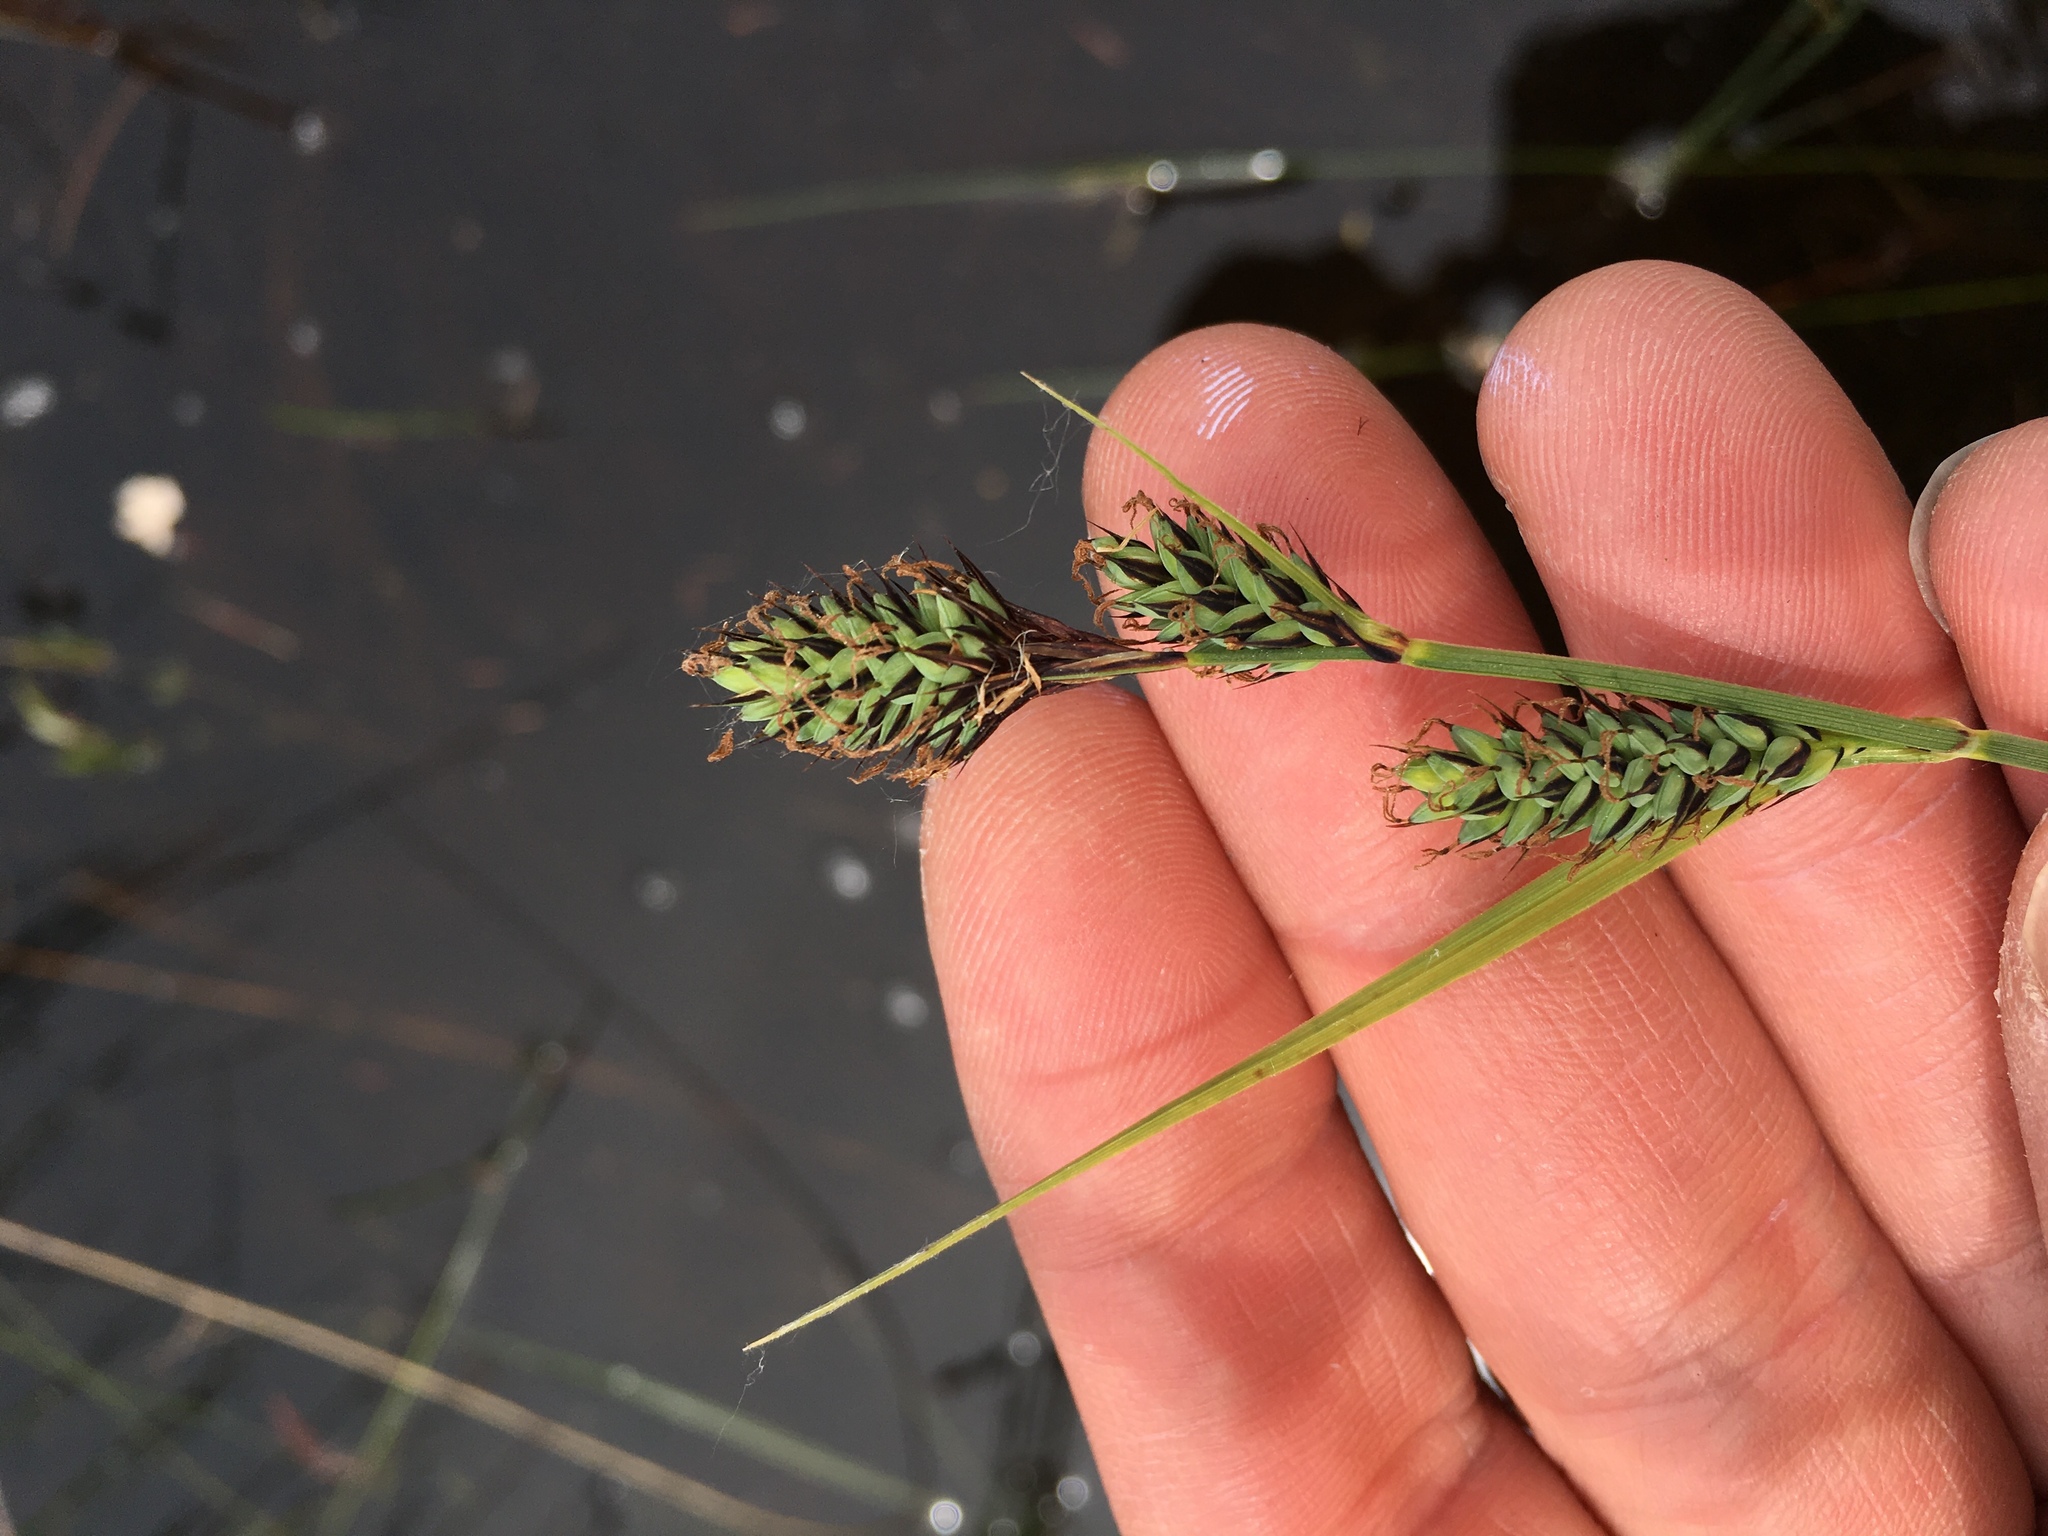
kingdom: Plantae
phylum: Tracheophyta
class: Liliopsida
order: Poales
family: Cyperaceae
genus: Carex
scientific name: Carex buxbaumii
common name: Club sedge
